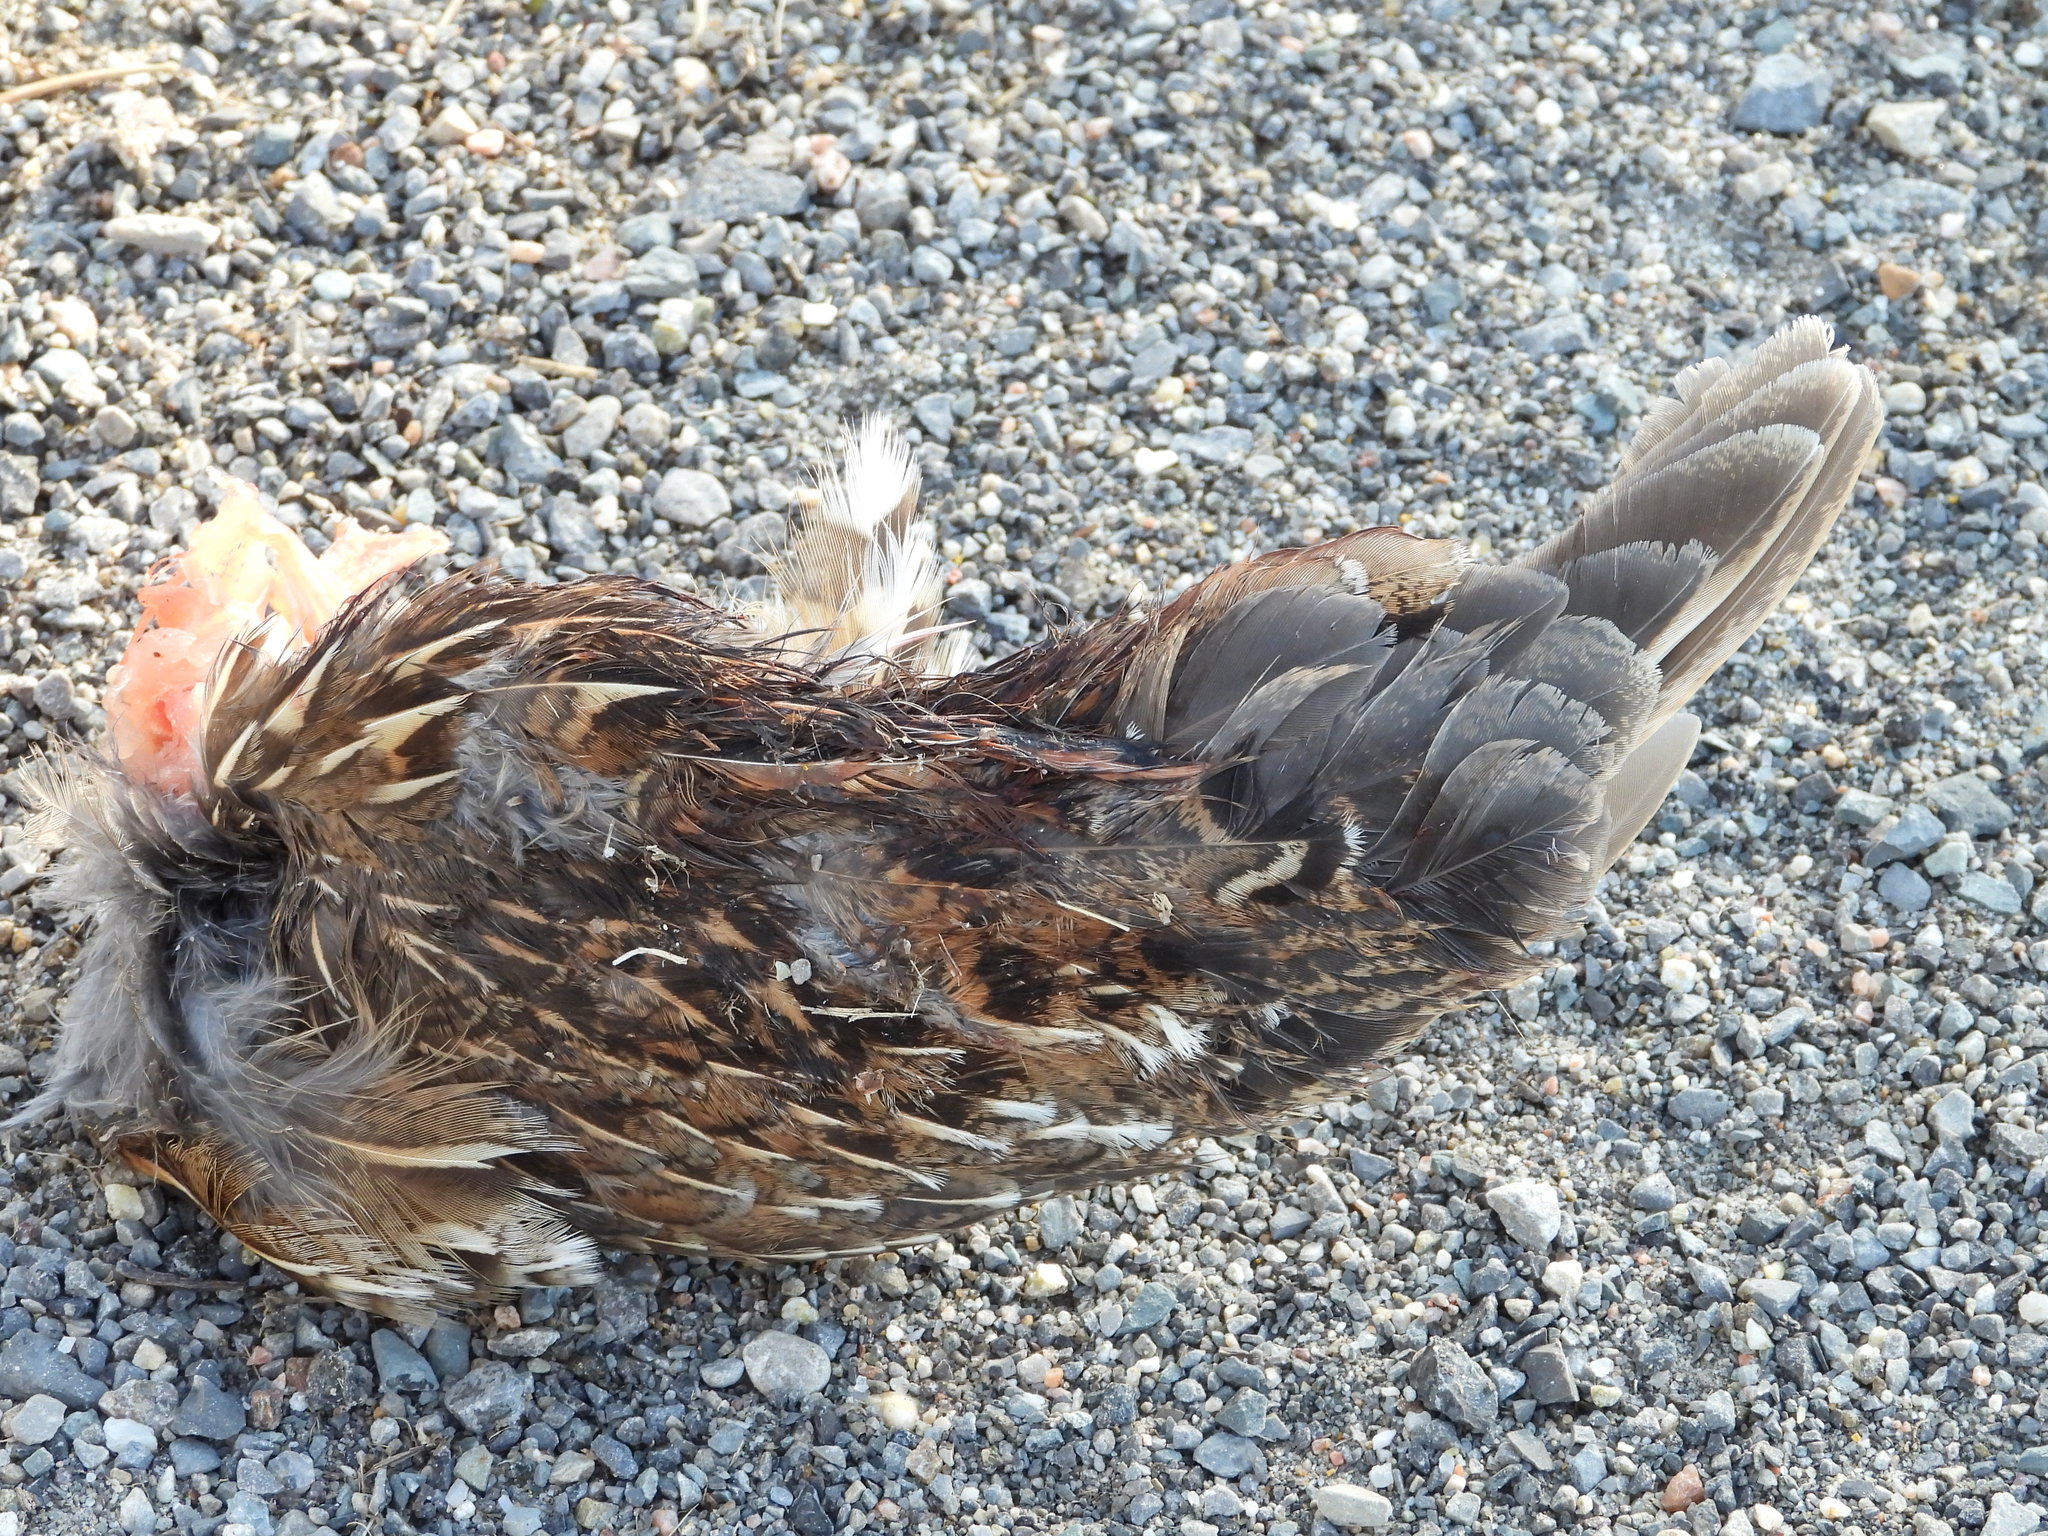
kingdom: Animalia
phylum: Chordata
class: Aves
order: Galliformes
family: Phasianidae
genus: Bonasa
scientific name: Bonasa umbellus
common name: Ruffed grouse
